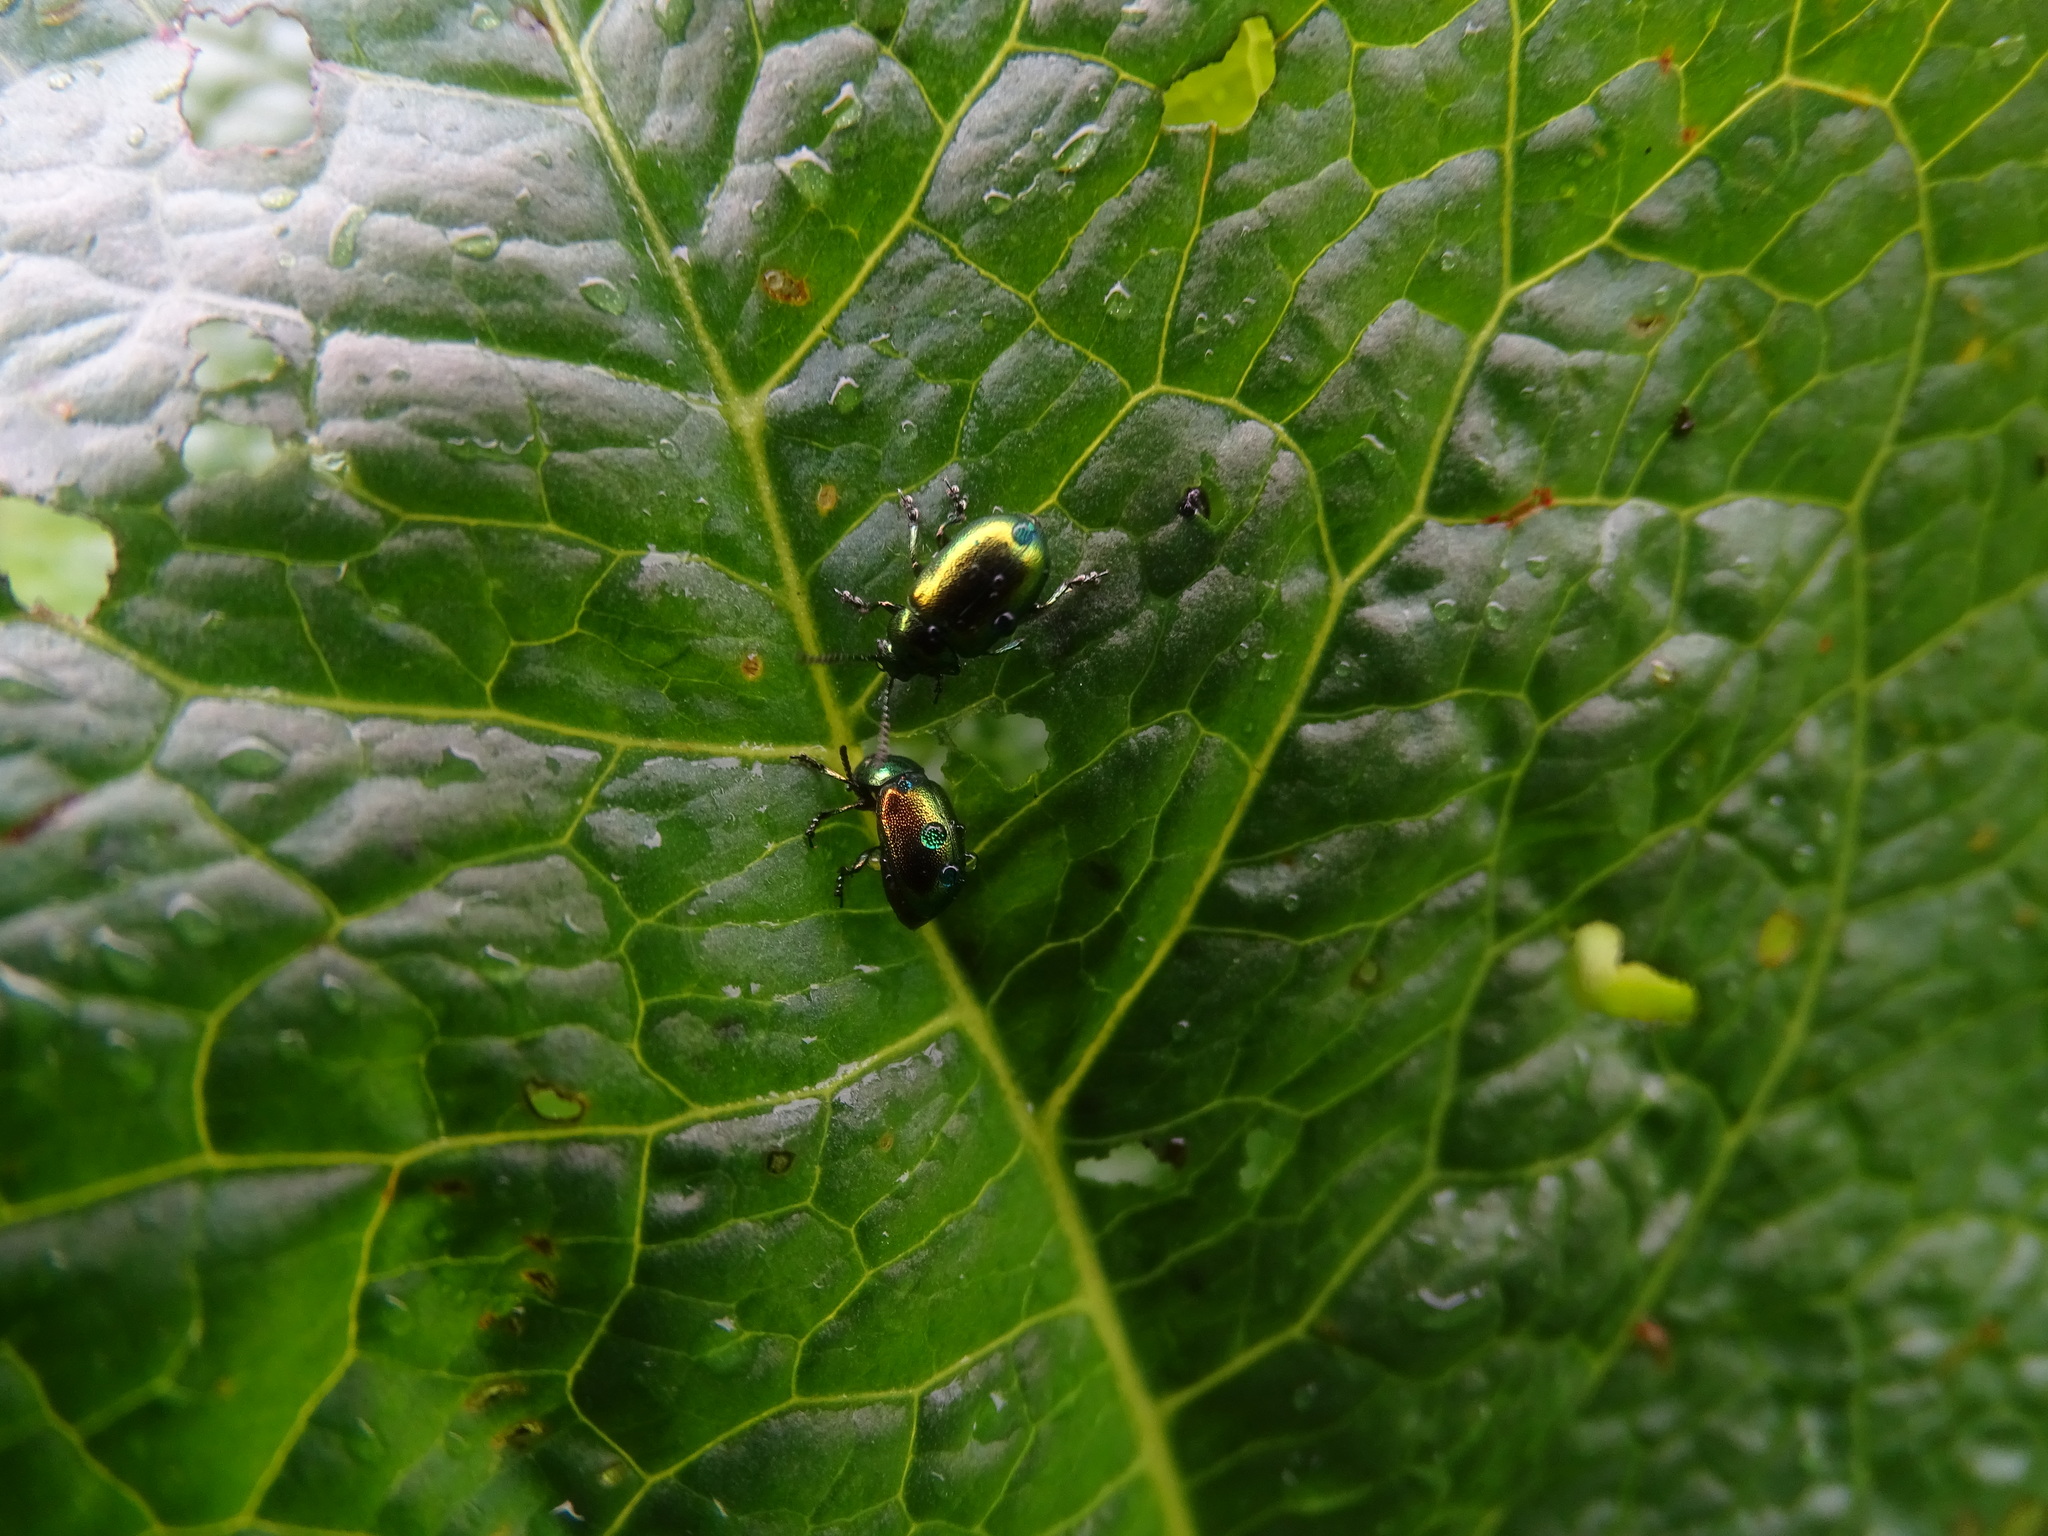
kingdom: Animalia
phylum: Arthropoda
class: Insecta
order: Coleoptera
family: Chrysomelidae
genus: Gastrophysa
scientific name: Gastrophysa viridula
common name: Green dock beetle
